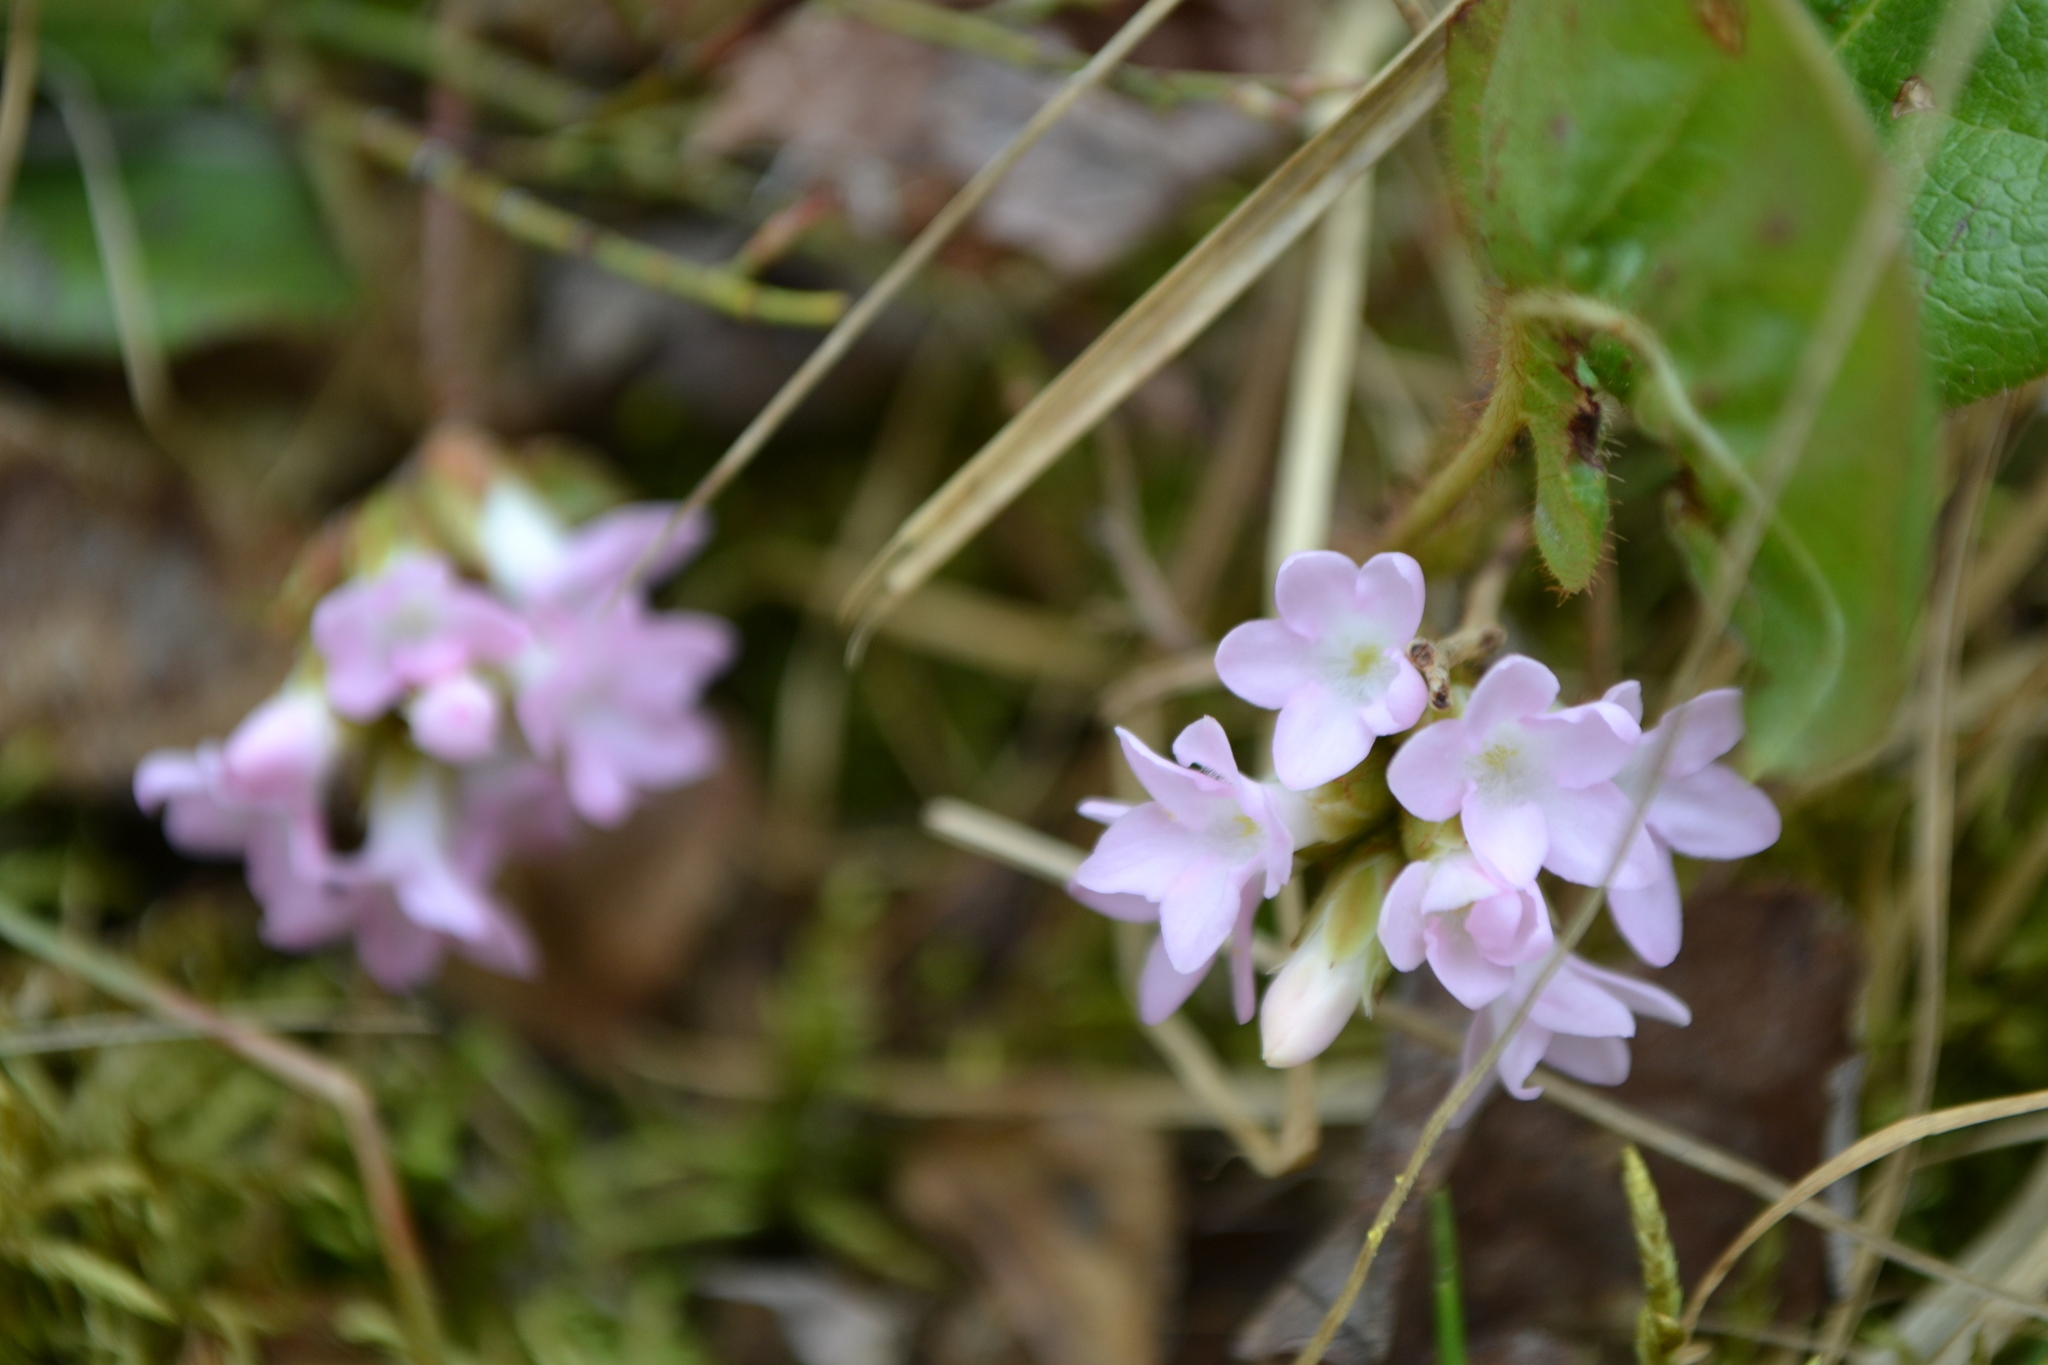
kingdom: Plantae
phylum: Tracheophyta
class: Magnoliopsida
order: Ericales
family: Ericaceae
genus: Epigaea
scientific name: Epigaea repens
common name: Gravelroot
